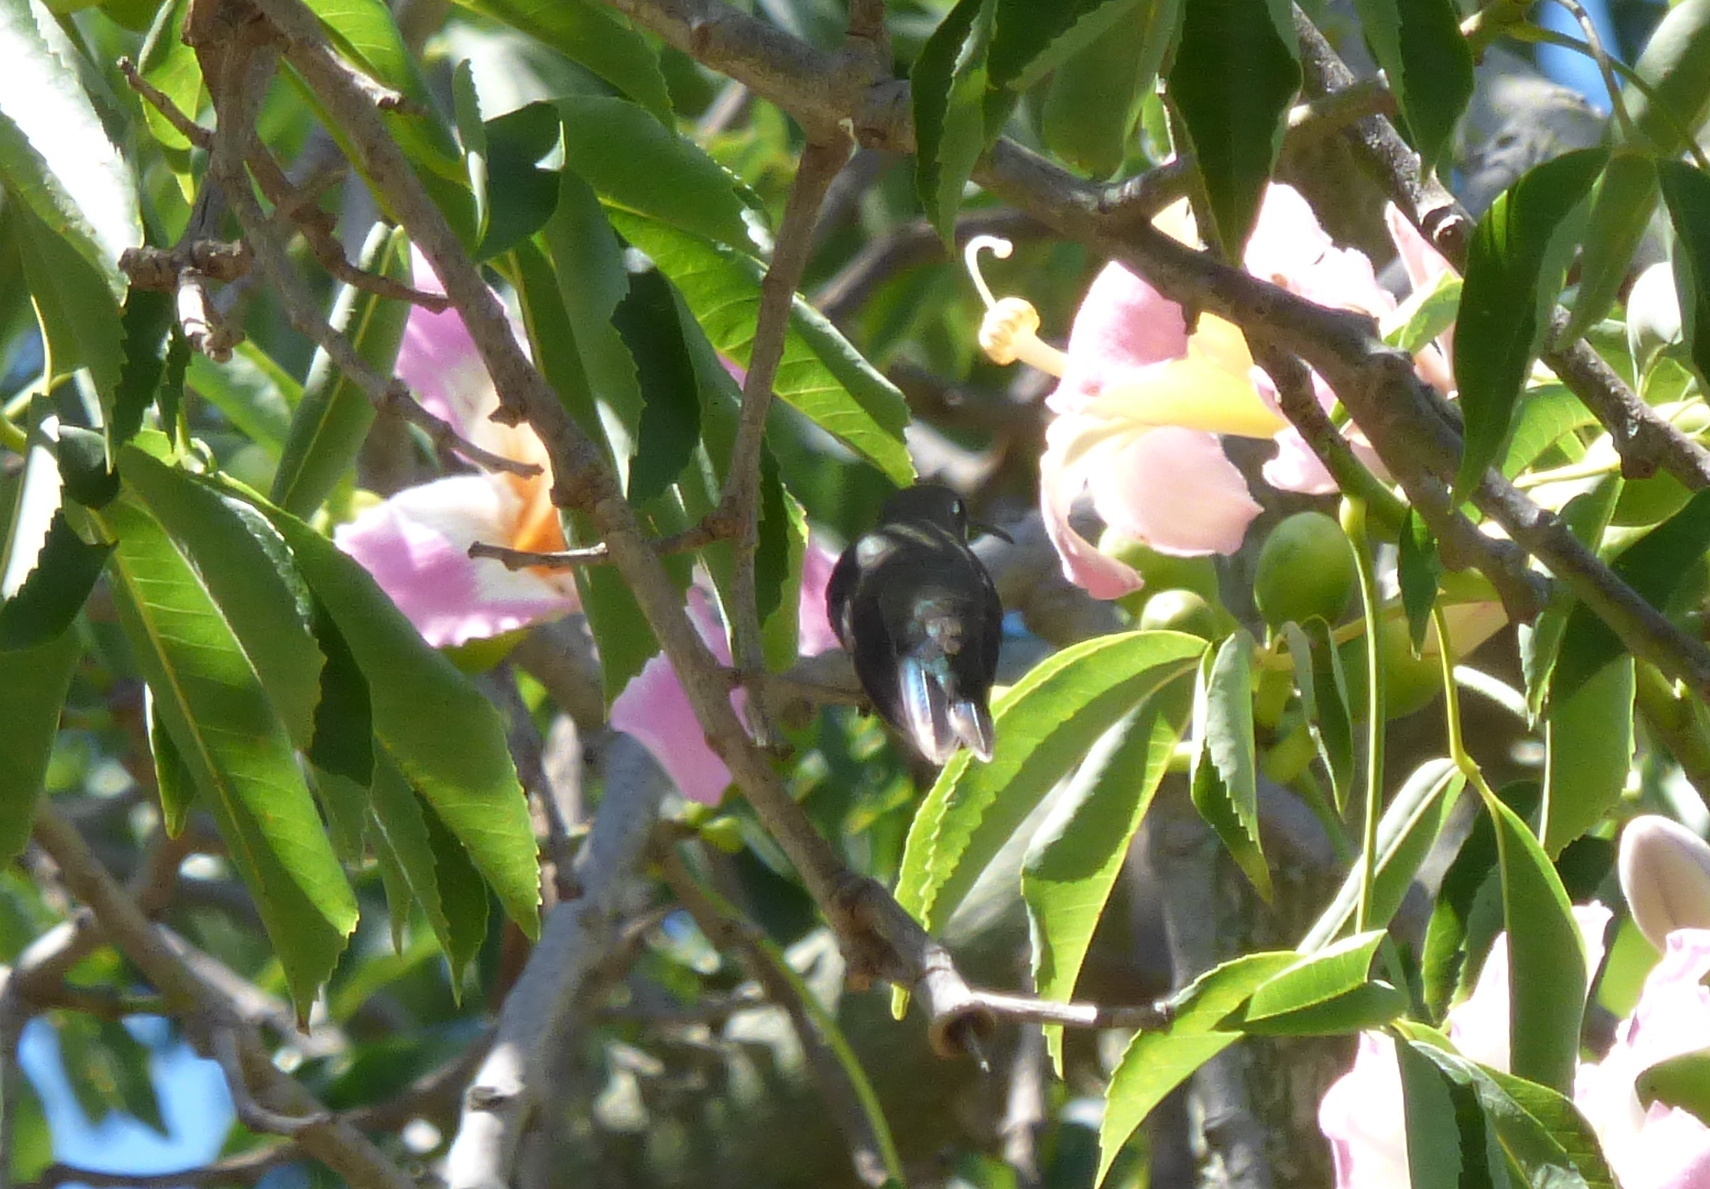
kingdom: Animalia
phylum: Chordata
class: Aves
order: Apodiformes
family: Trochilidae
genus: Heliomaster
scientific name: Heliomaster furcifer
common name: Blue-tufted starthroat
